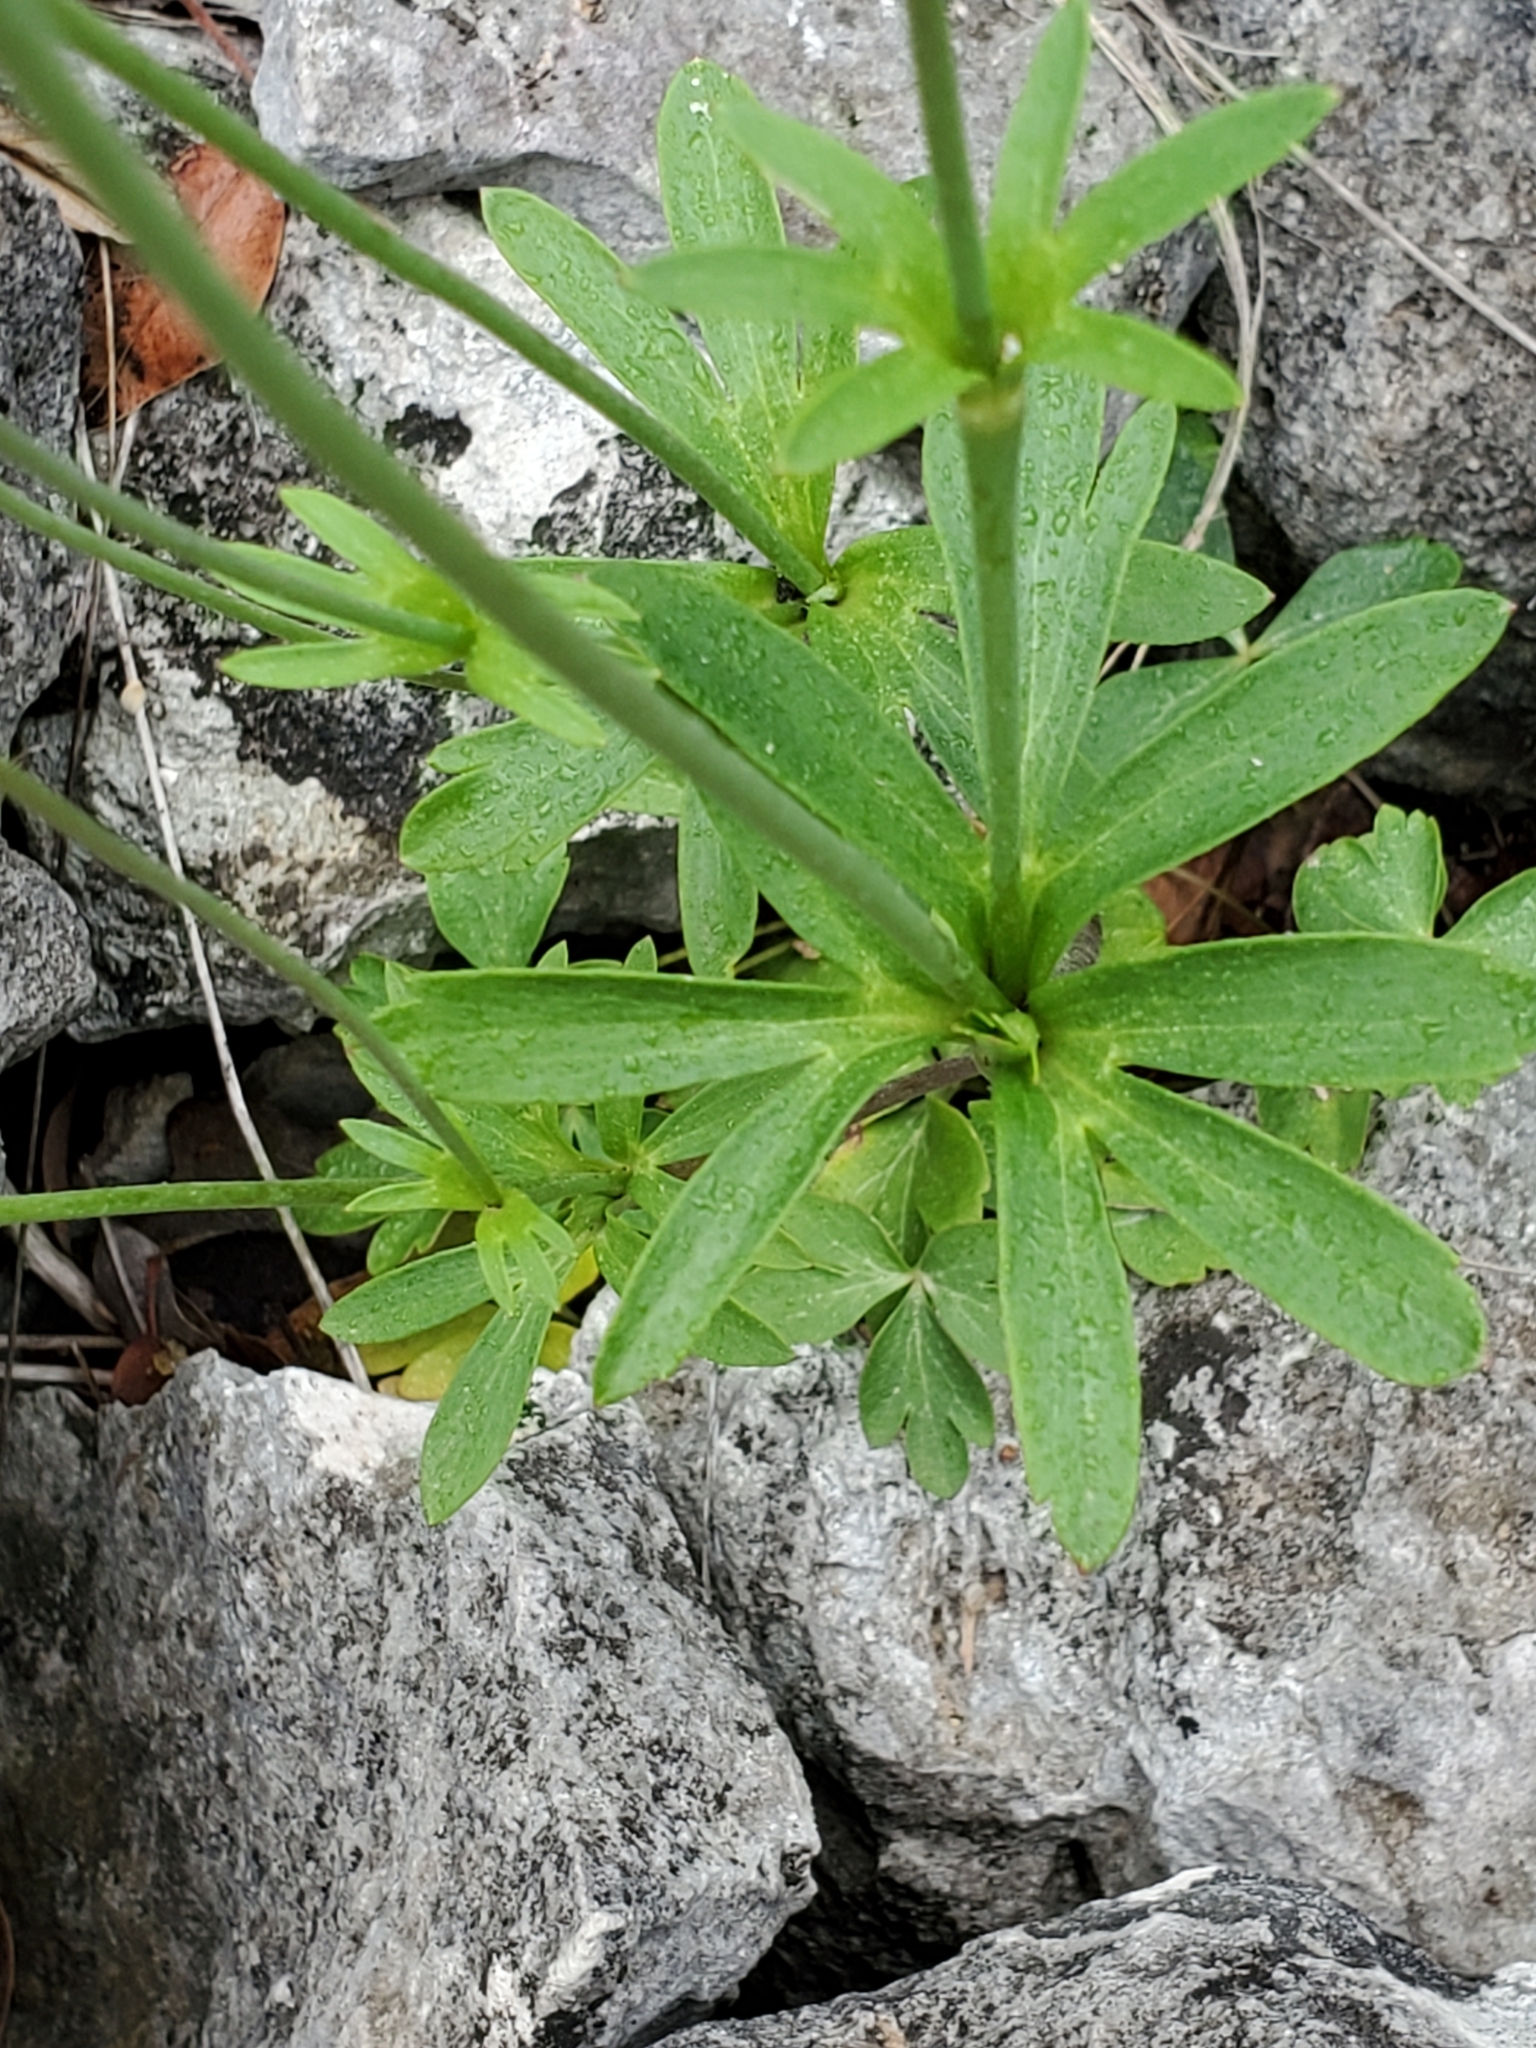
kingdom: Plantae
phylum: Tracheophyta
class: Magnoliopsida
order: Ranunculales
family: Ranunculaceae
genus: Anemone
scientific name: Anemone edwardsiana
